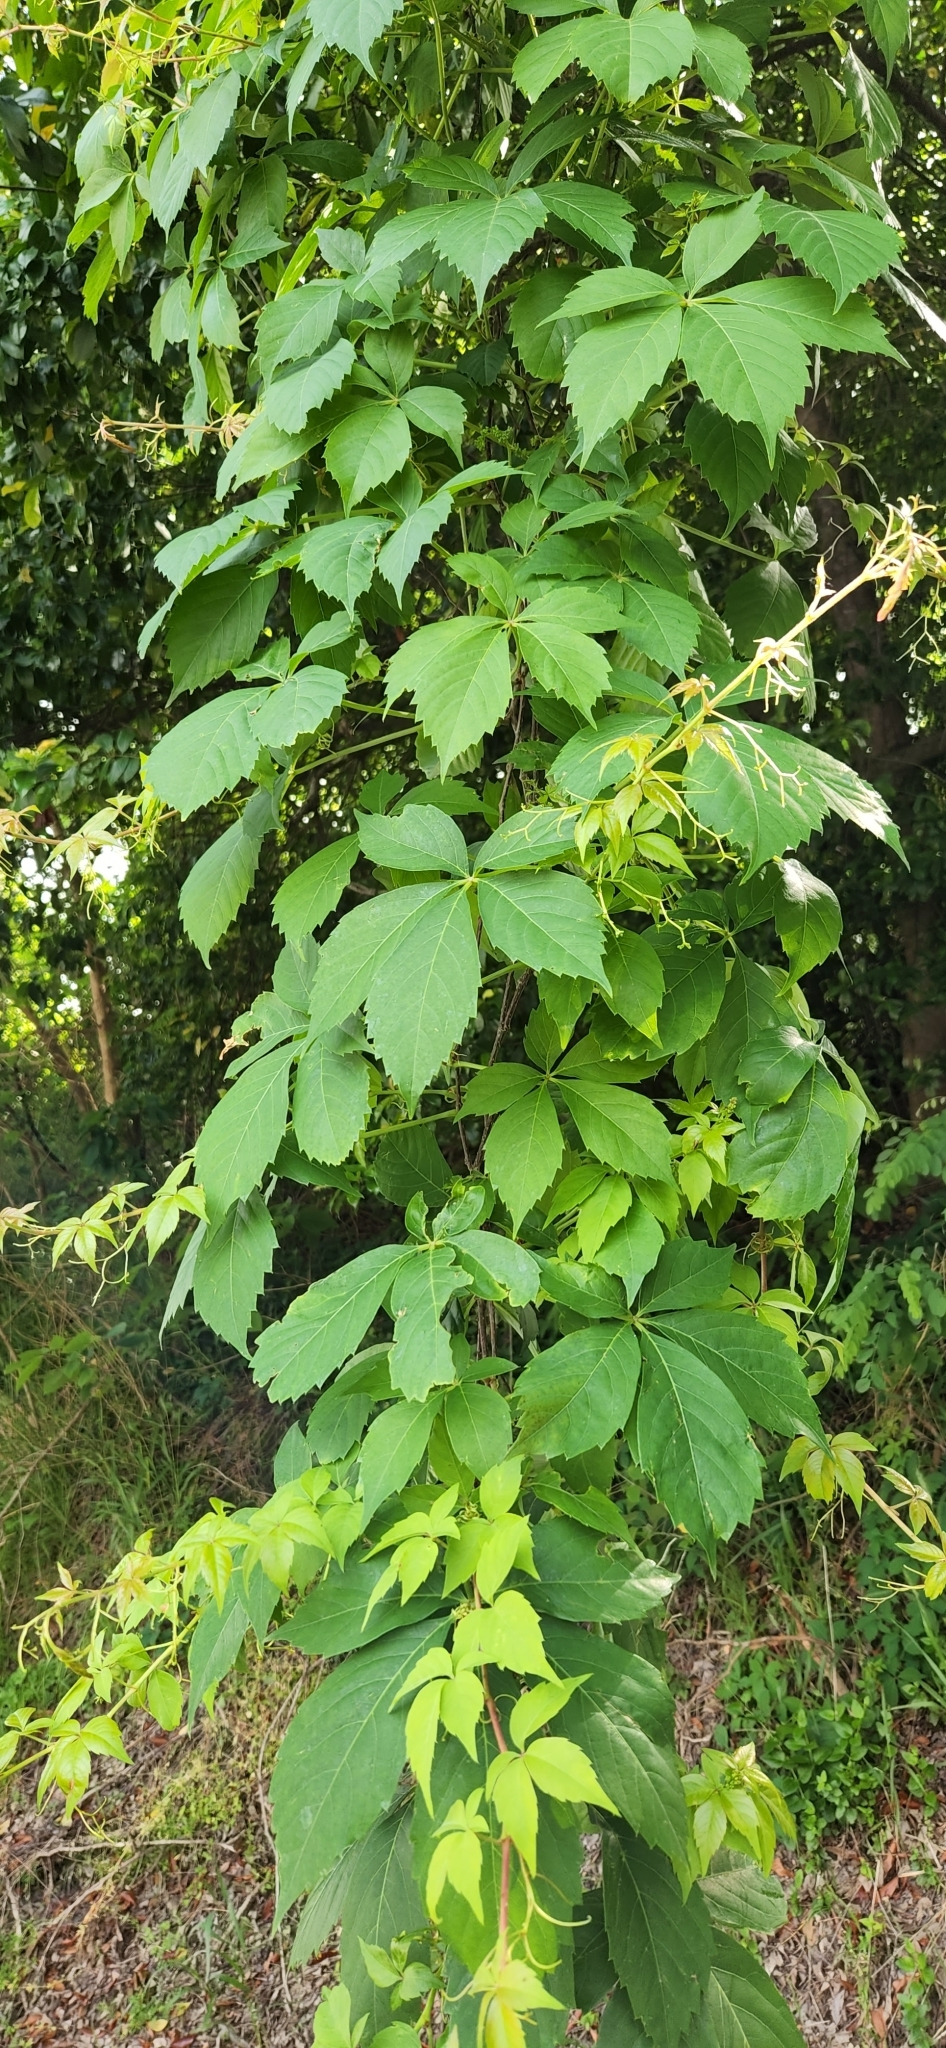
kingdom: Plantae
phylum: Tracheophyta
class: Magnoliopsida
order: Vitales
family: Vitaceae
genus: Parthenocissus
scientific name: Parthenocissus quinquefolia
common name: Virginia-creeper
